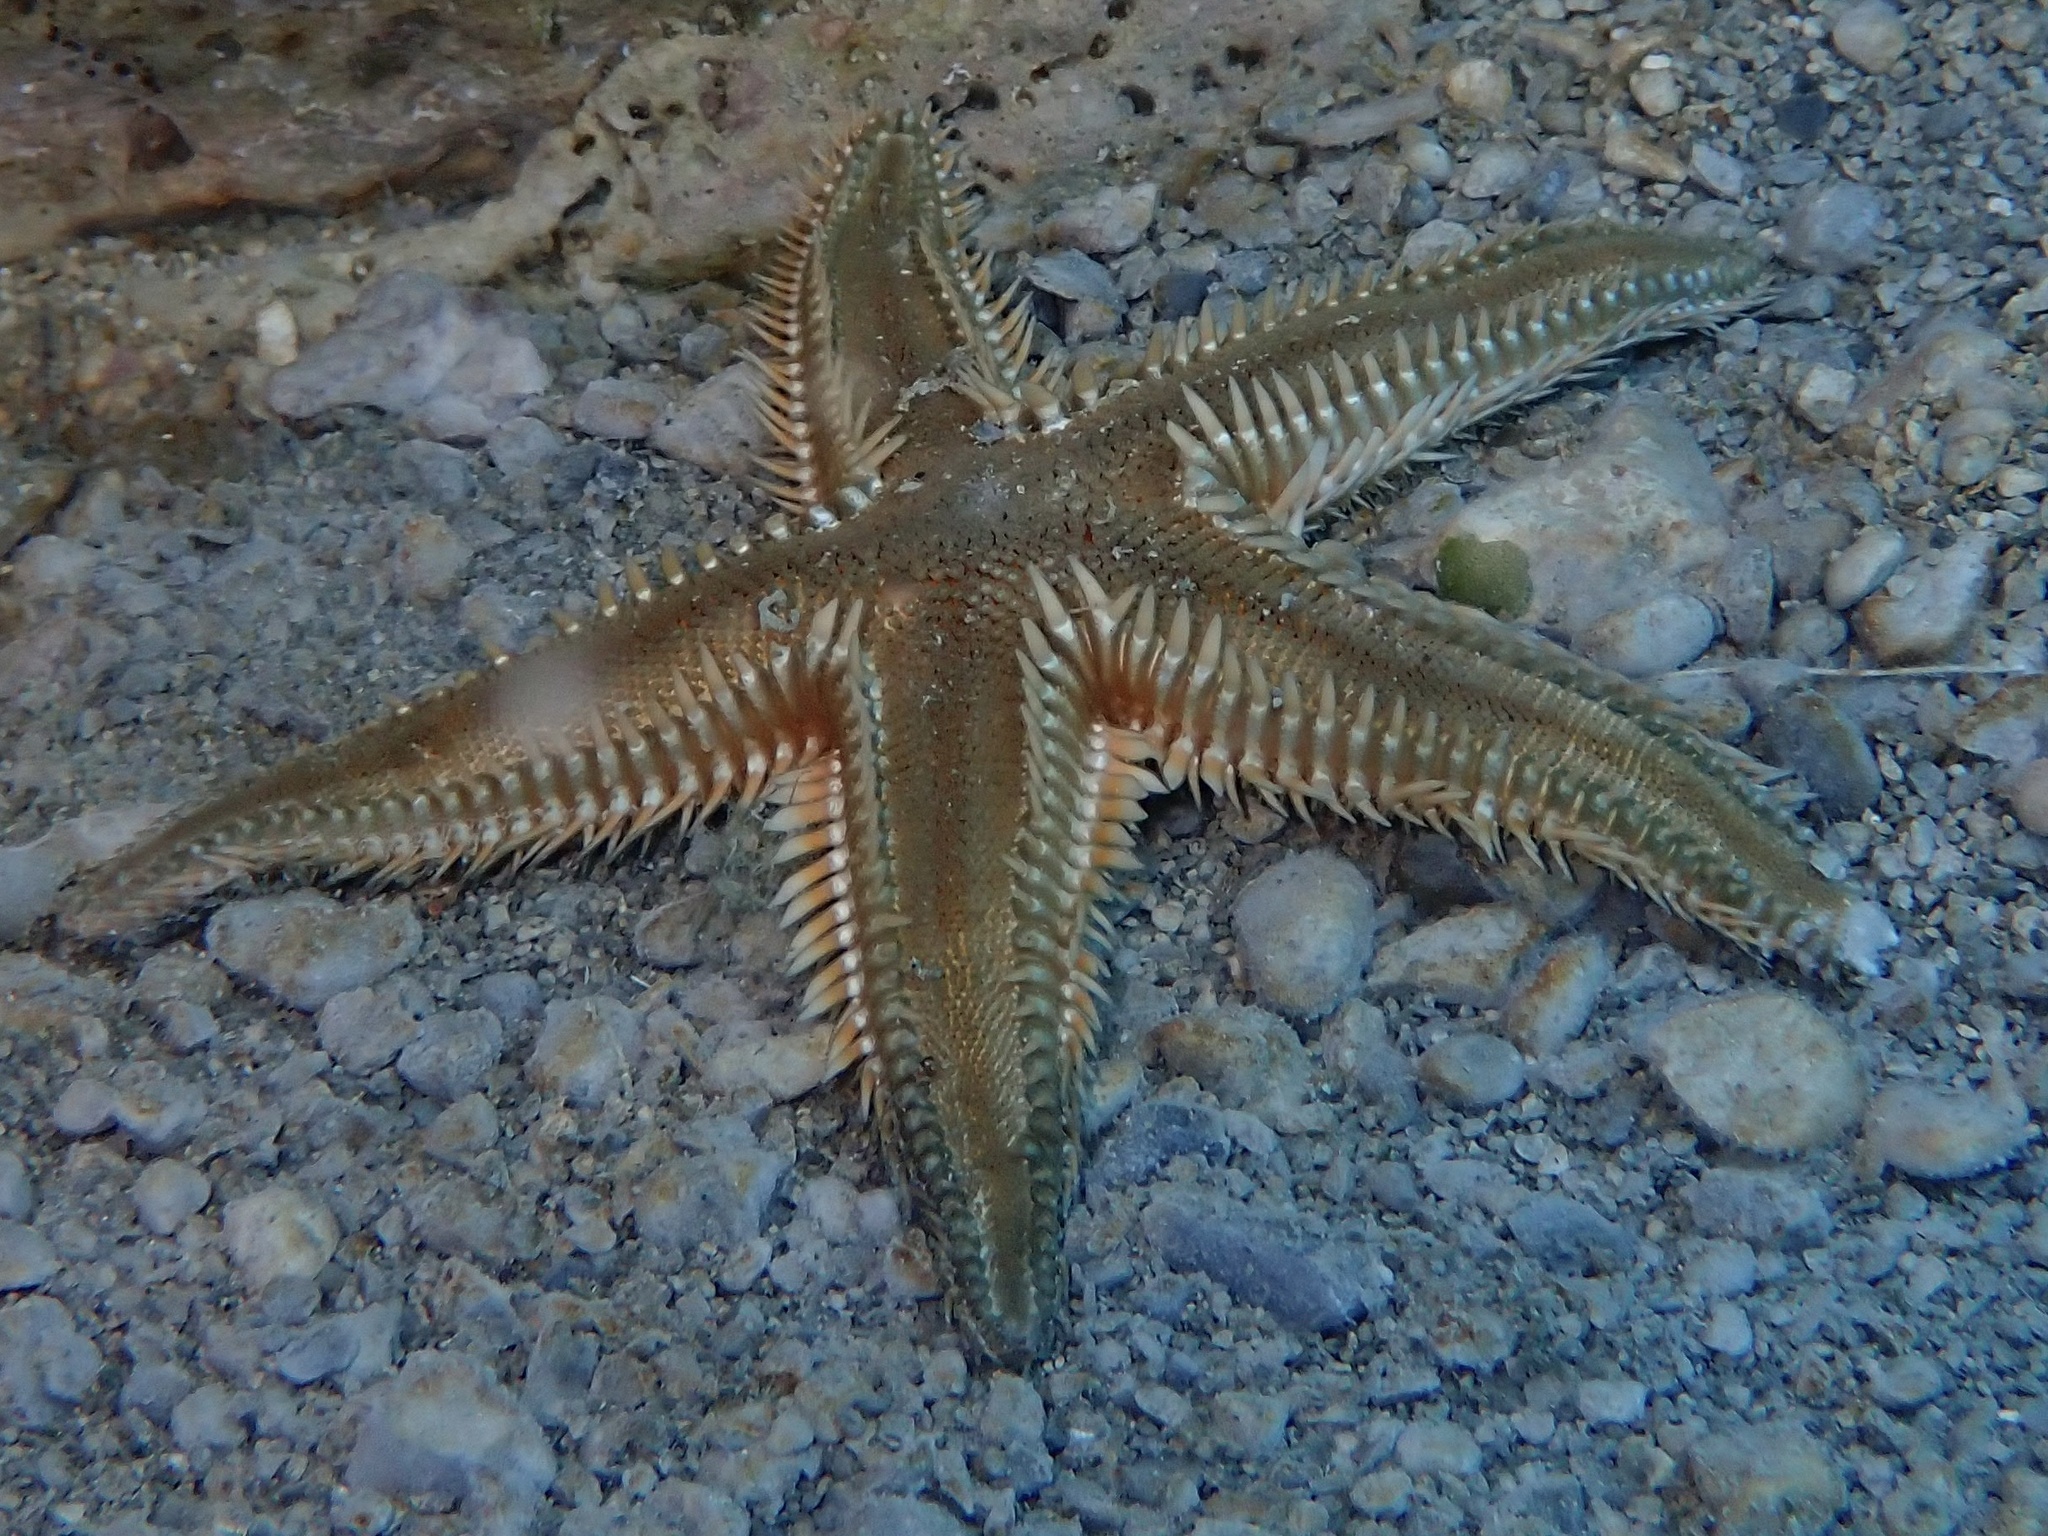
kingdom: Animalia
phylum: Echinodermata
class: Asteroidea
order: Paxillosida
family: Astropectinidae
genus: Astropecten
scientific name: Astropecten platyacanthus
